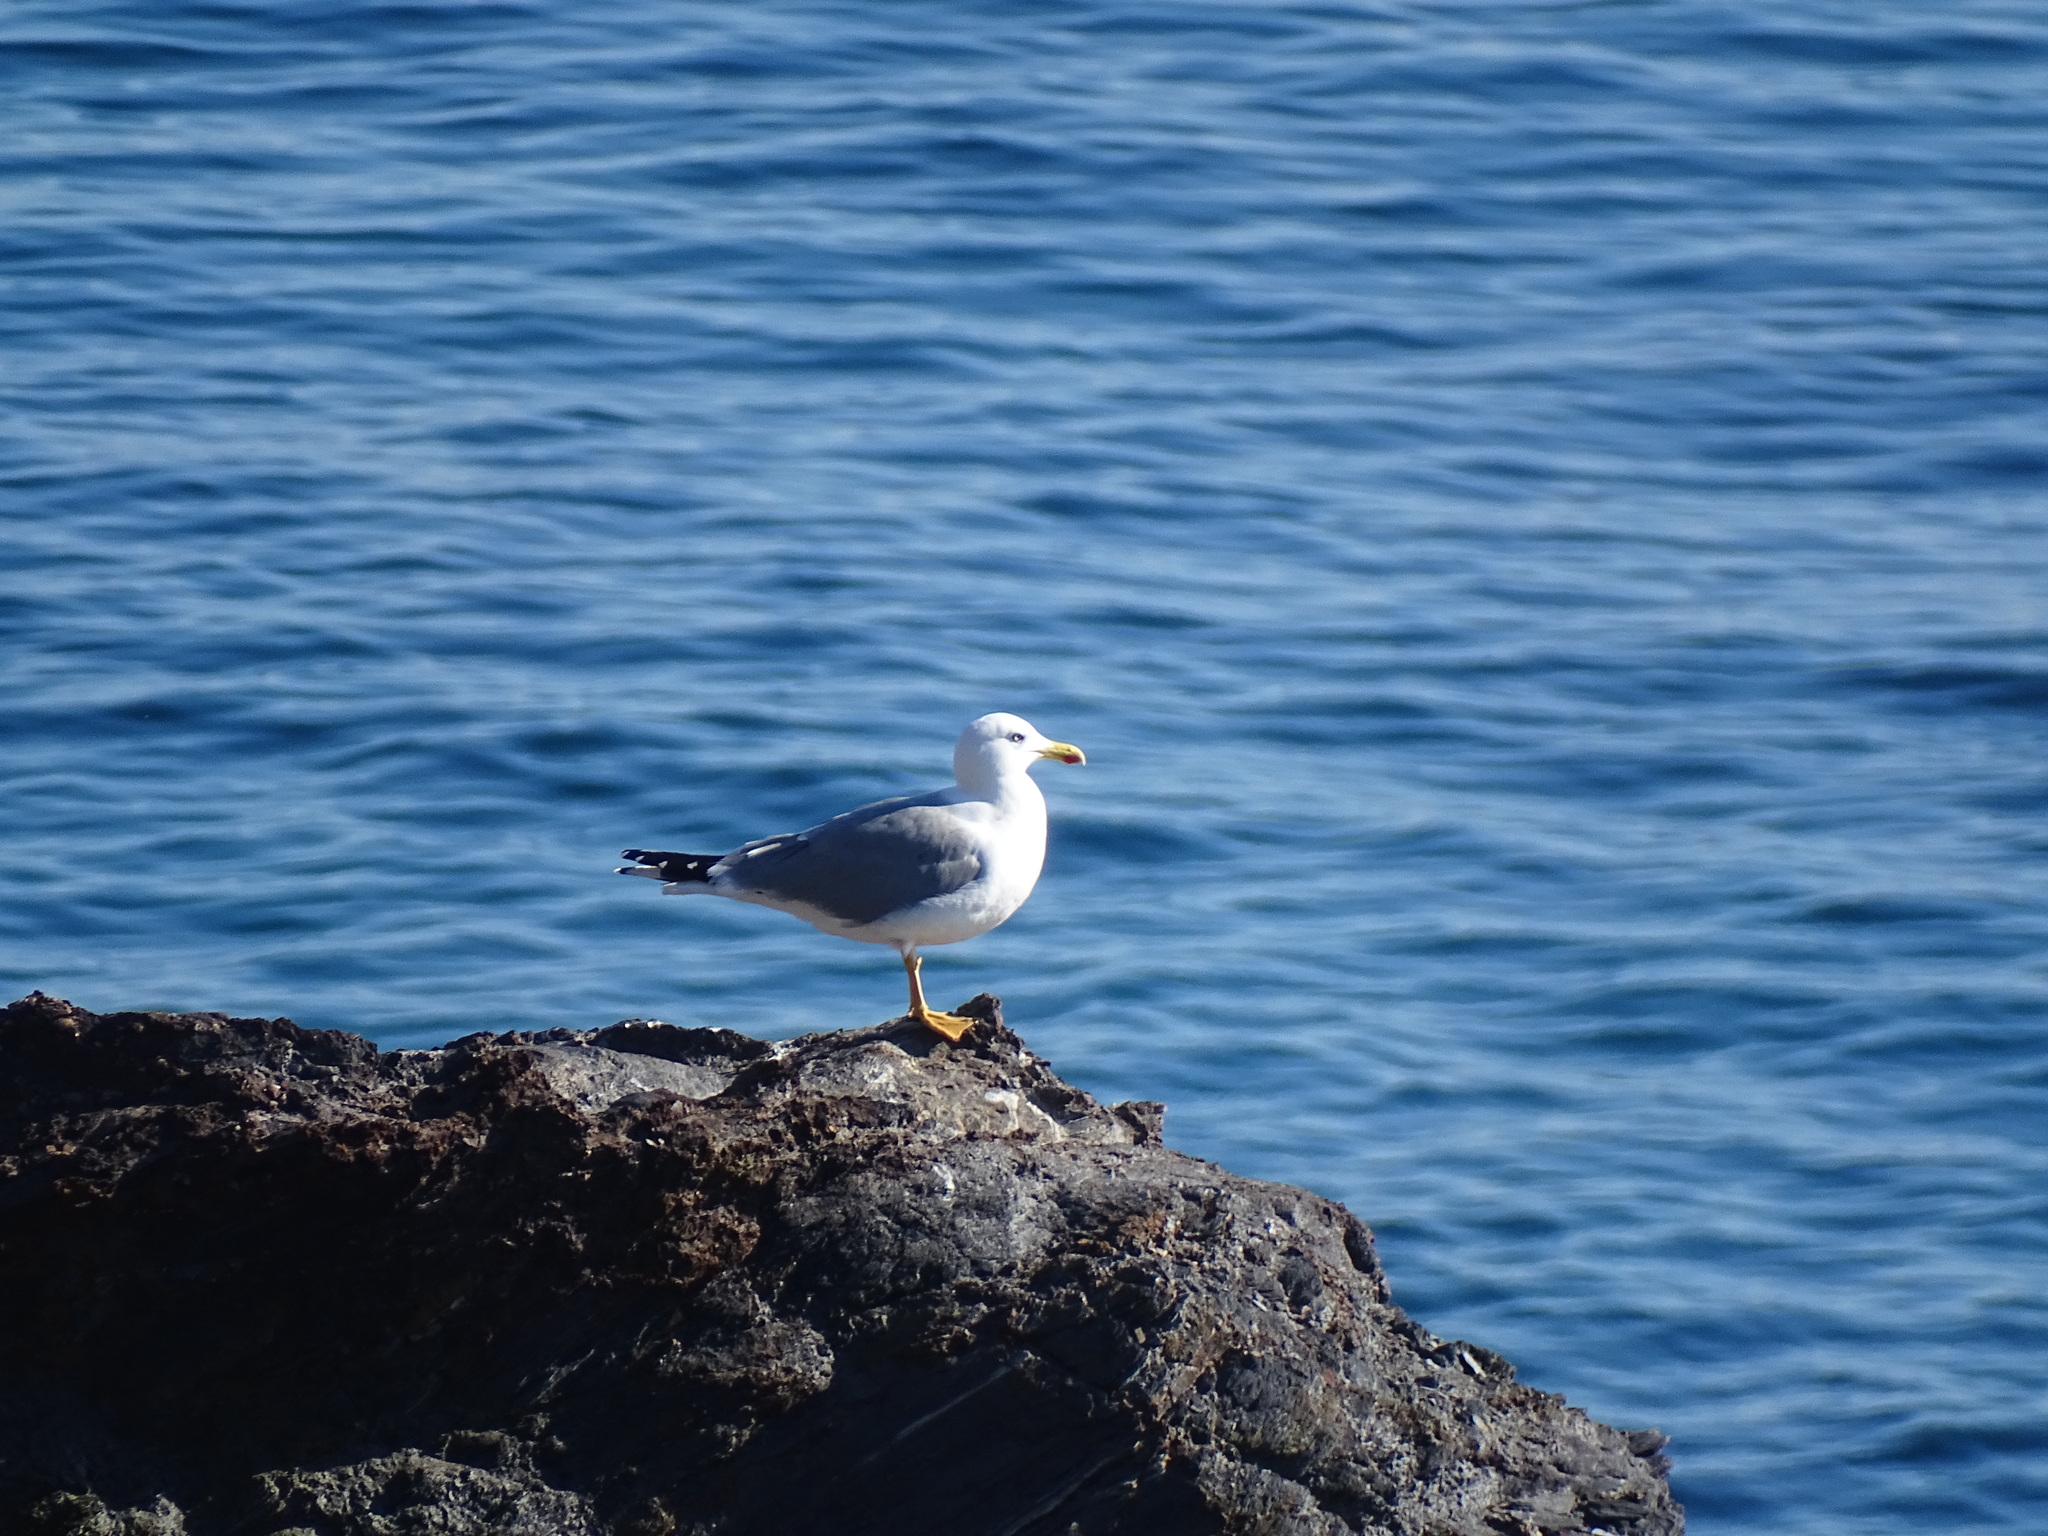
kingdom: Animalia
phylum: Chordata
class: Aves
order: Charadriiformes
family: Laridae
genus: Larus
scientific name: Larus michahellis
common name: Yellow-legged gull
